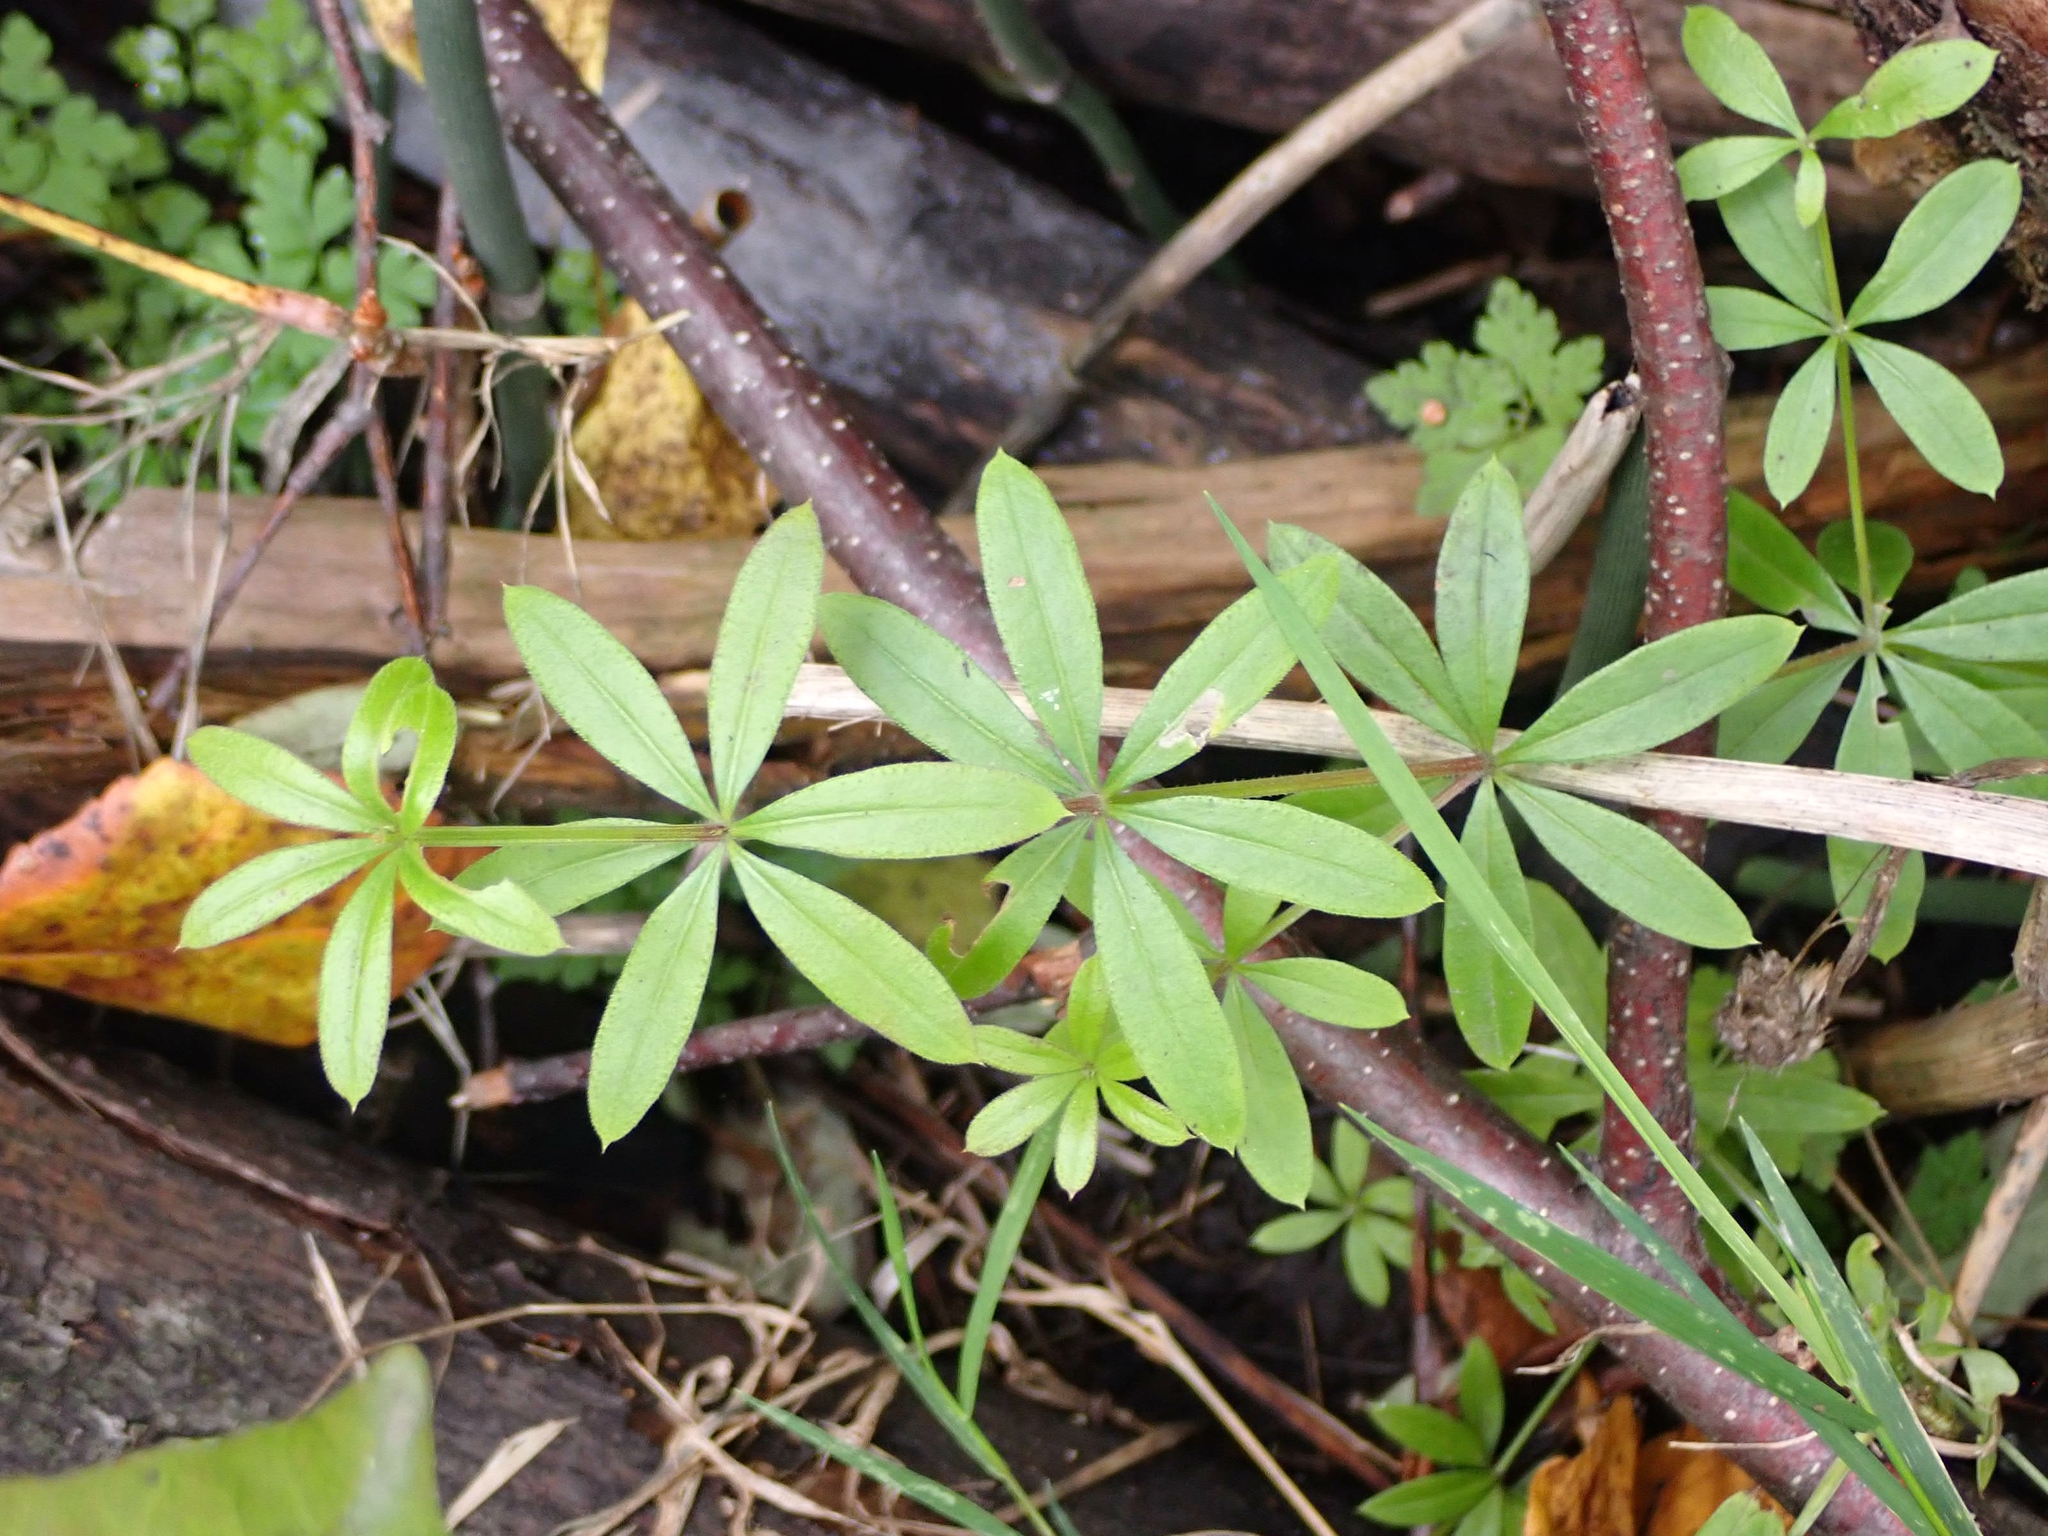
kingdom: Plantae
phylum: Tracheophyta
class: Magnoliopsida
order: Gentianales
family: Rubiaceae
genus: Galium
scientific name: Galium triflorum
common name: Fragrant bedstraw
